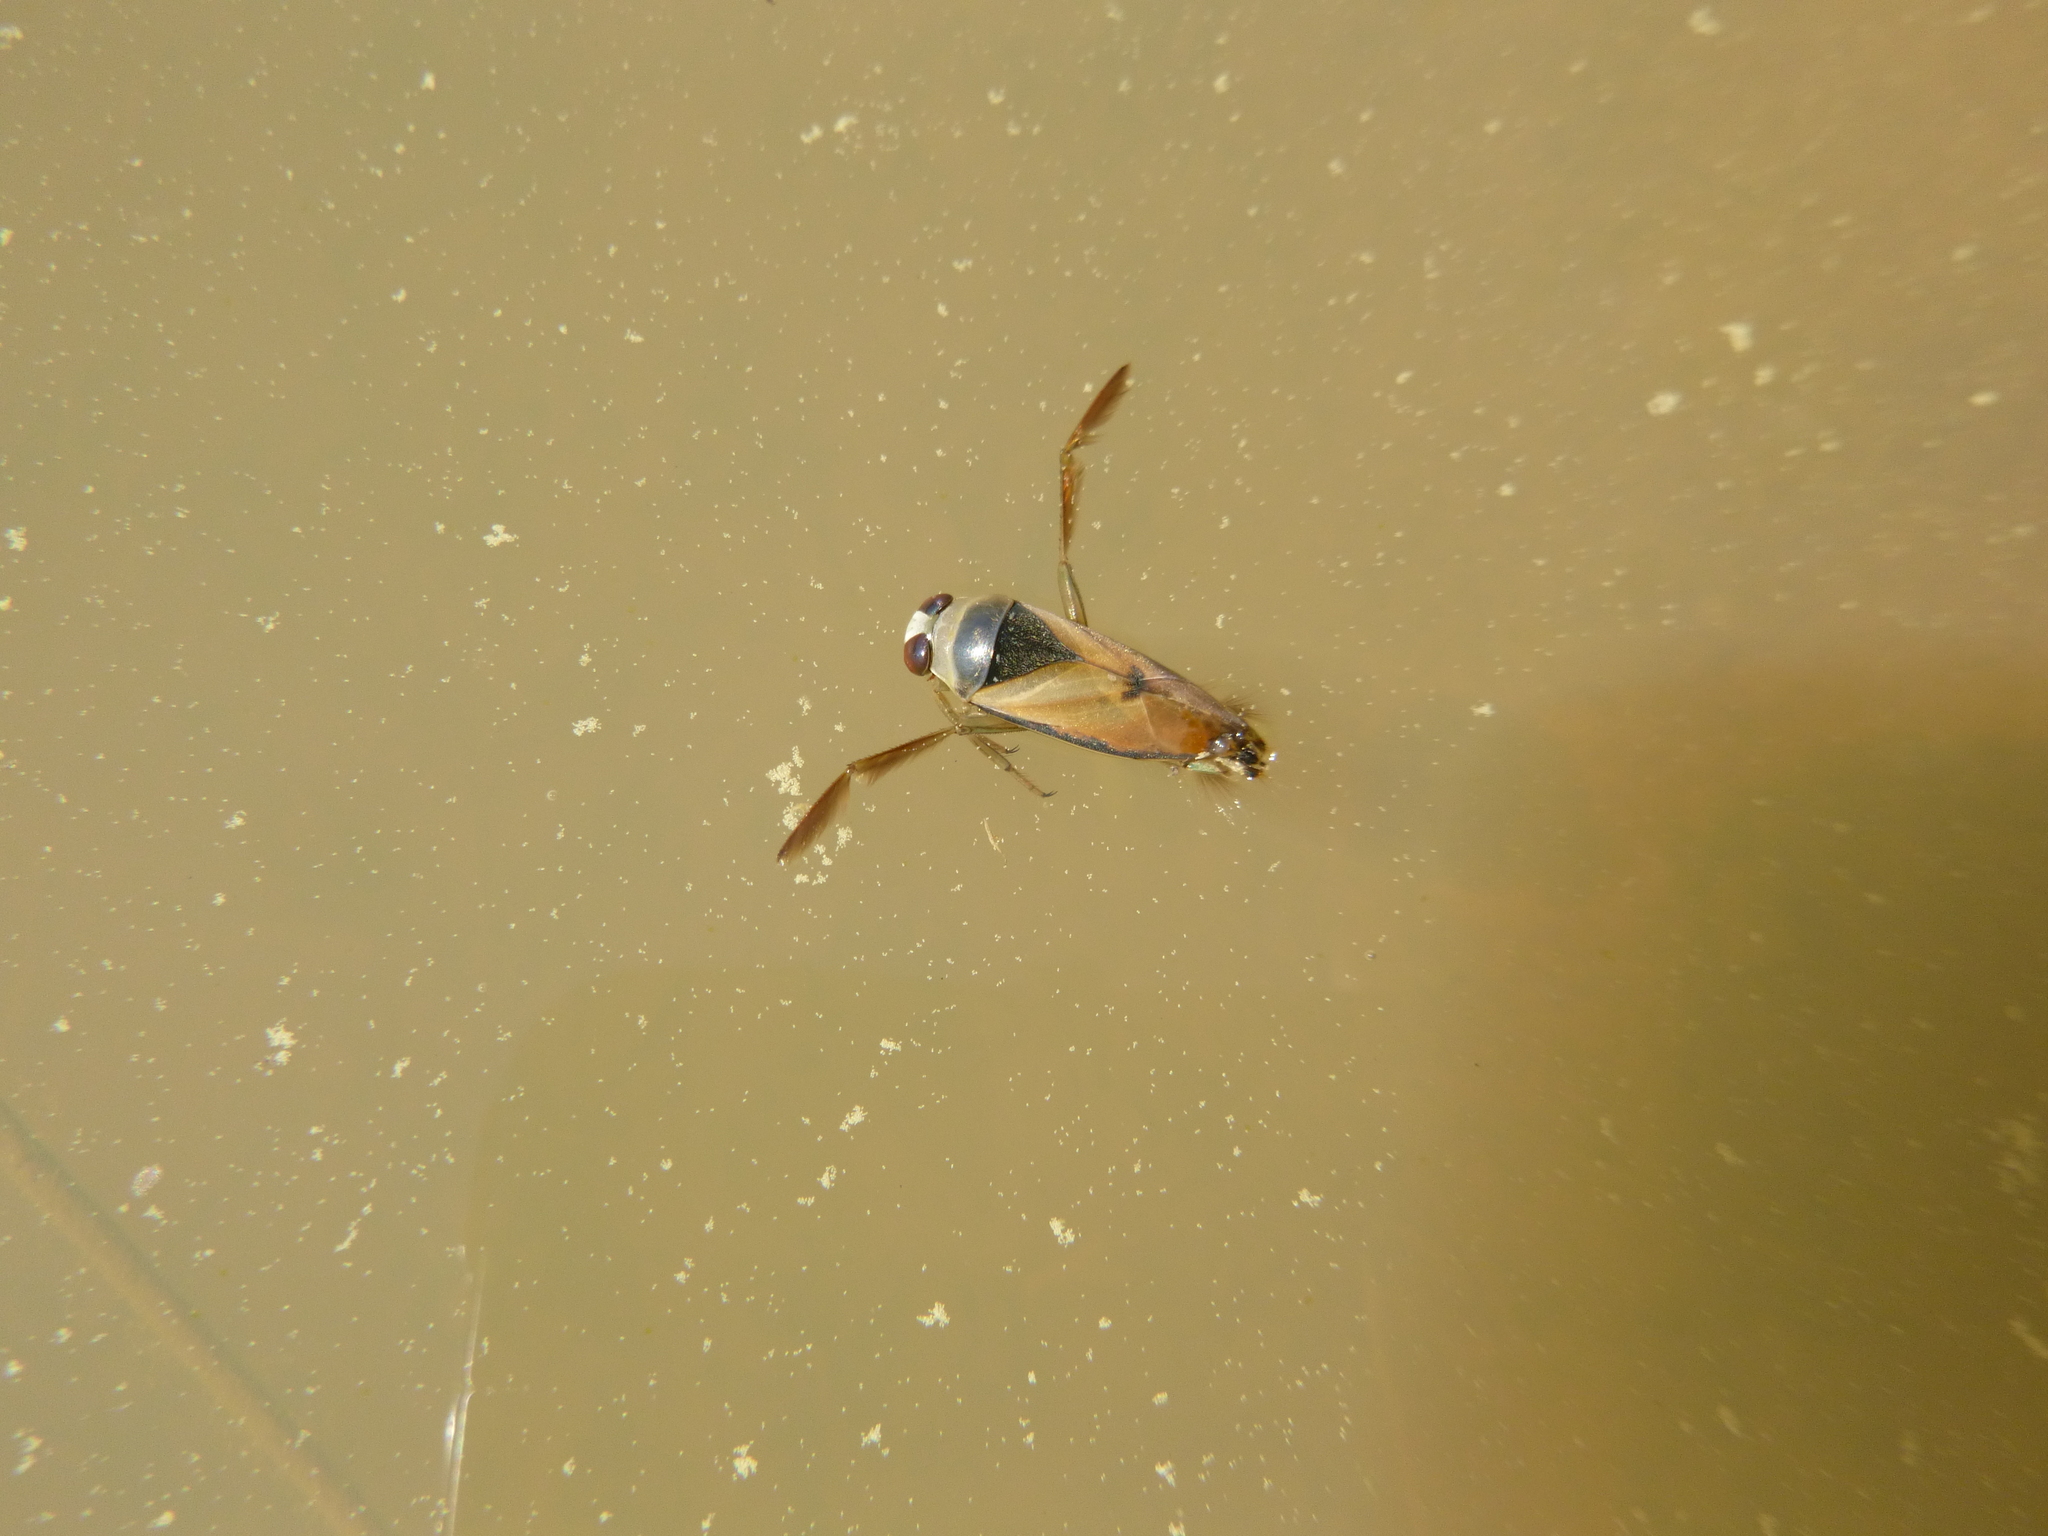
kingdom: Animalia
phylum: Arthropoda
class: Insecta
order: Hemiptera
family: Notonectidae
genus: Notonecta
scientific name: Notonecta glauca
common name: Common water-boatman
